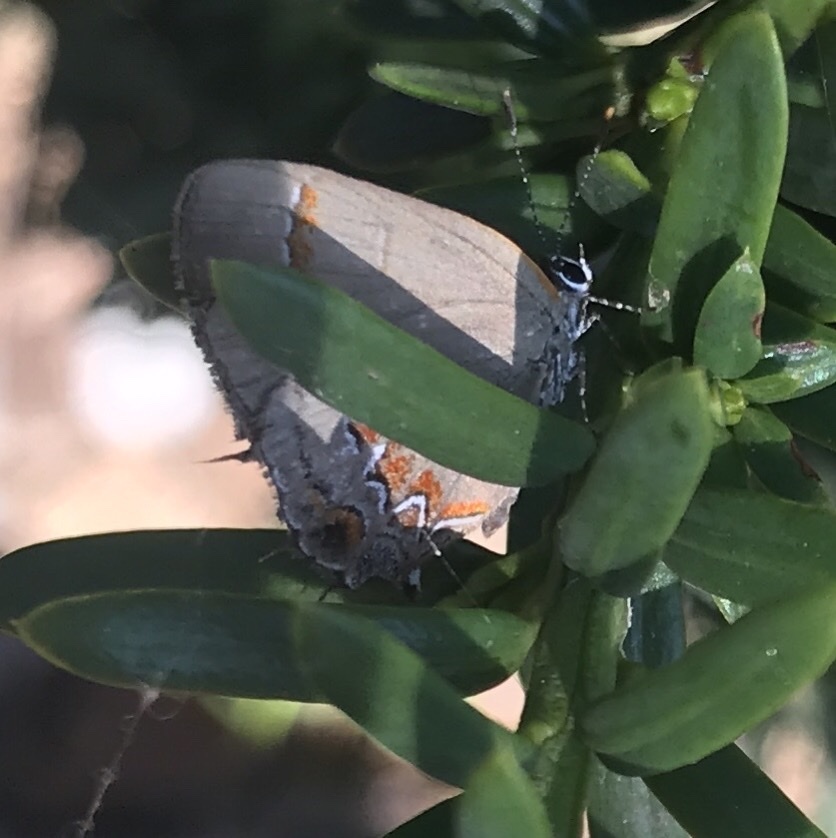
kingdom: Animalia
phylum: Arthropoda
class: Insecta
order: Lepidoptera
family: Lycaenidae
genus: Calycopis
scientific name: Calycopis cecrops
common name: Red-banded hairstreak
